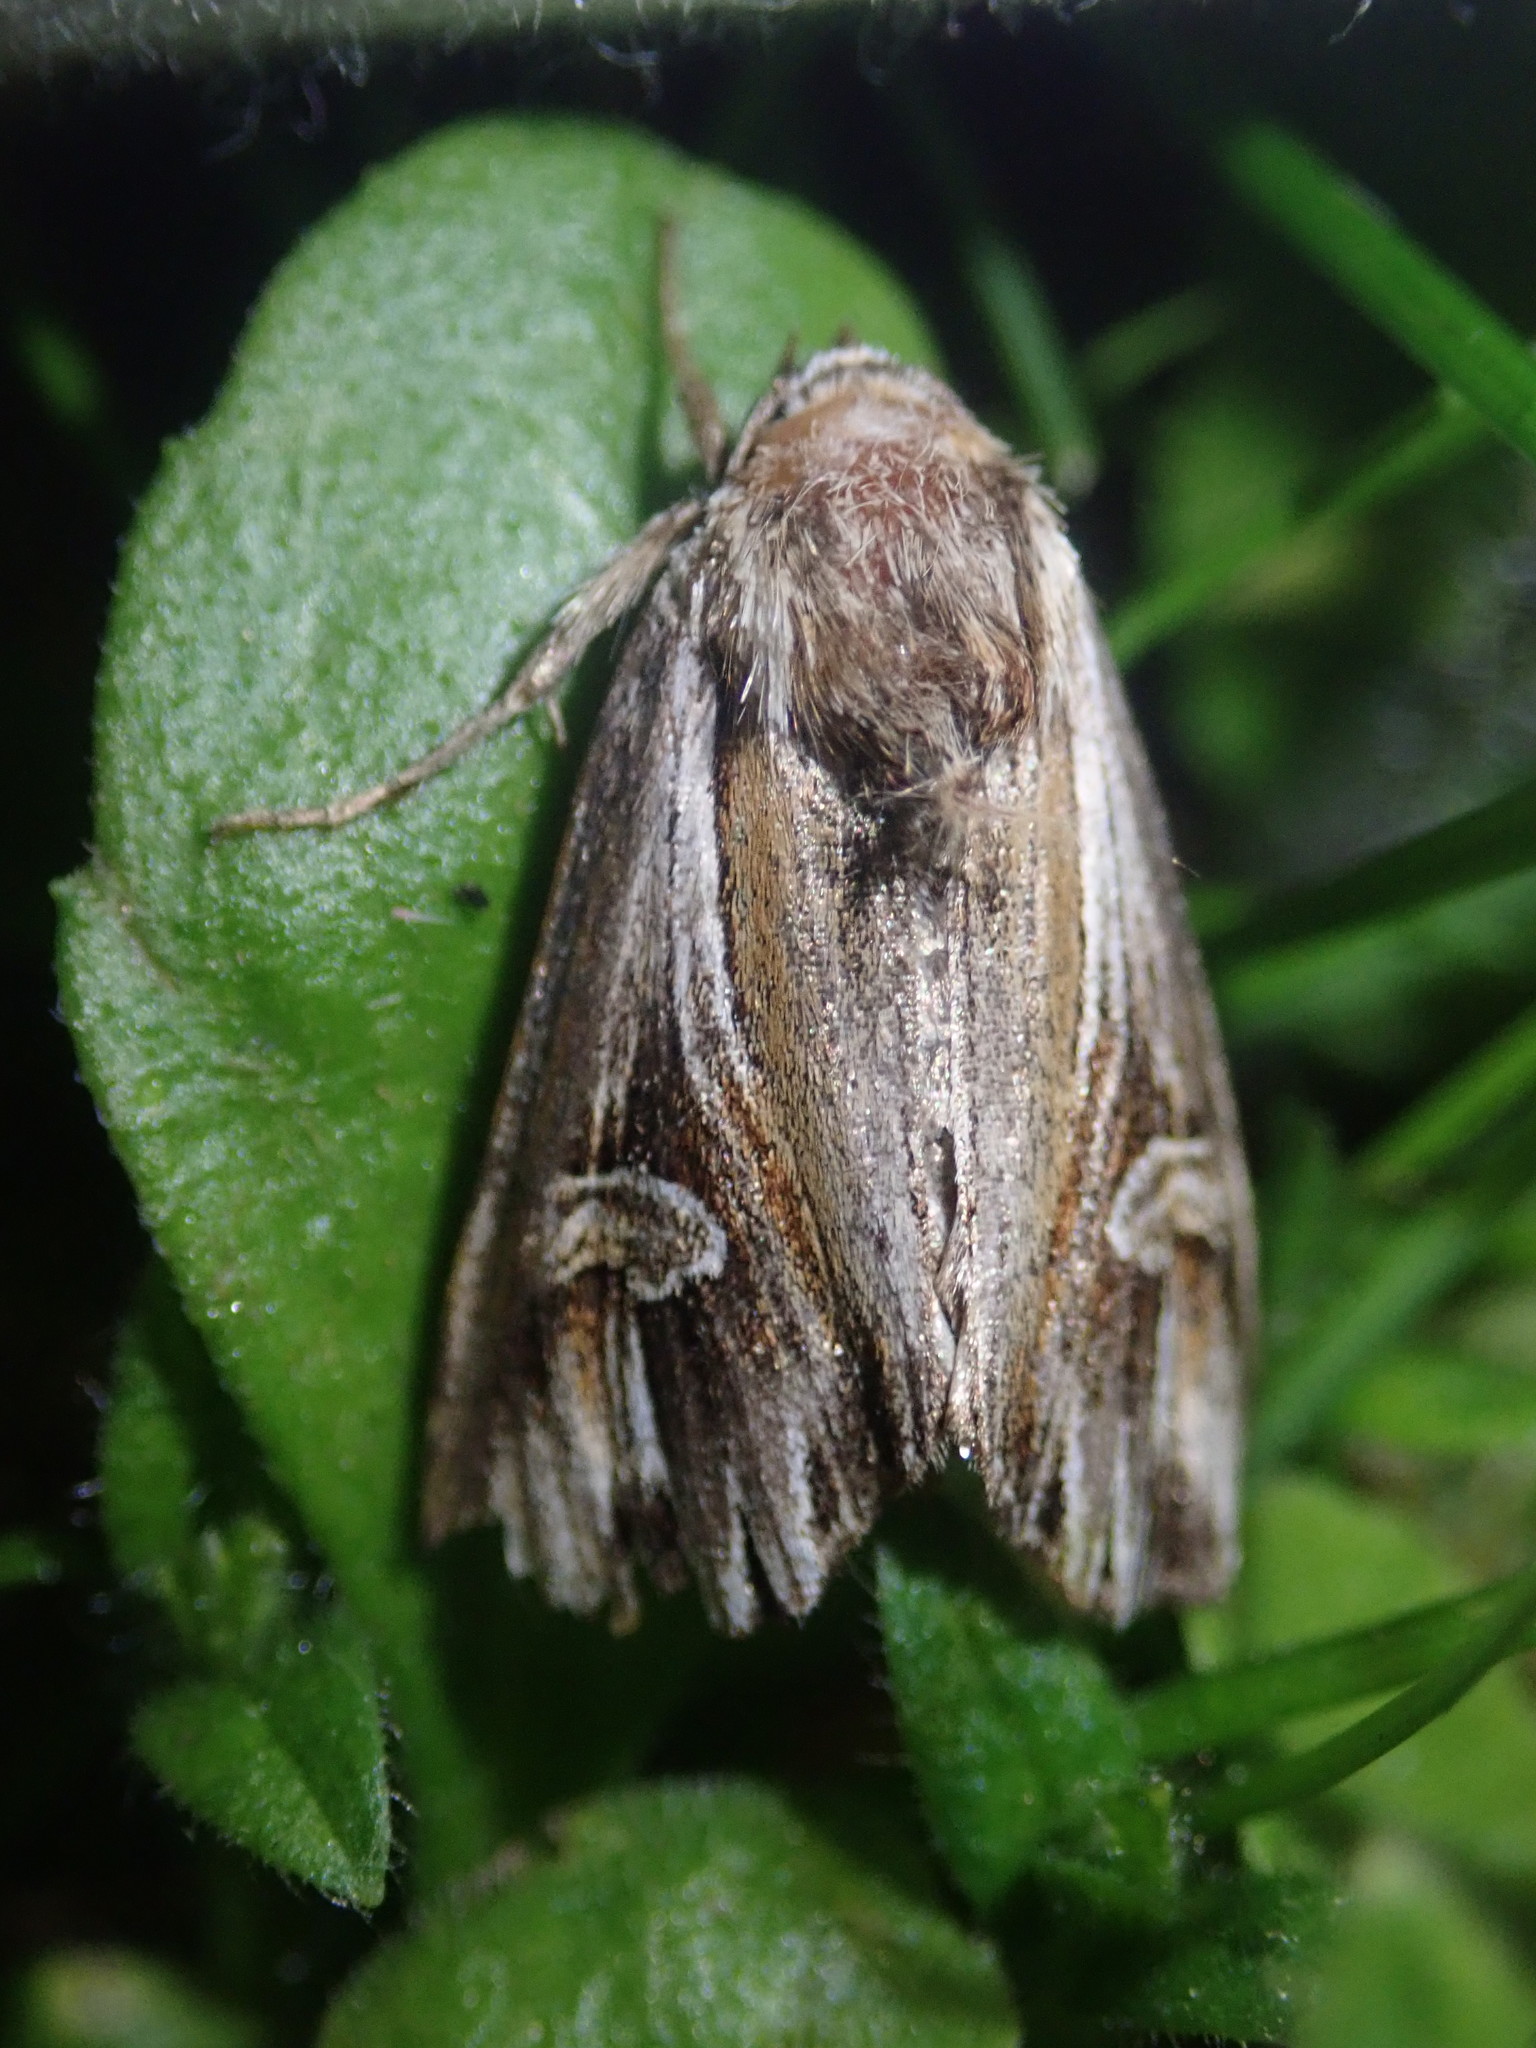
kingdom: Animalia
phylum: Arthropoda
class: Insecta
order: Lepidoptera
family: Noctuidae
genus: Actinotia
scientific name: Actinotia polyodon
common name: Purple cloud
